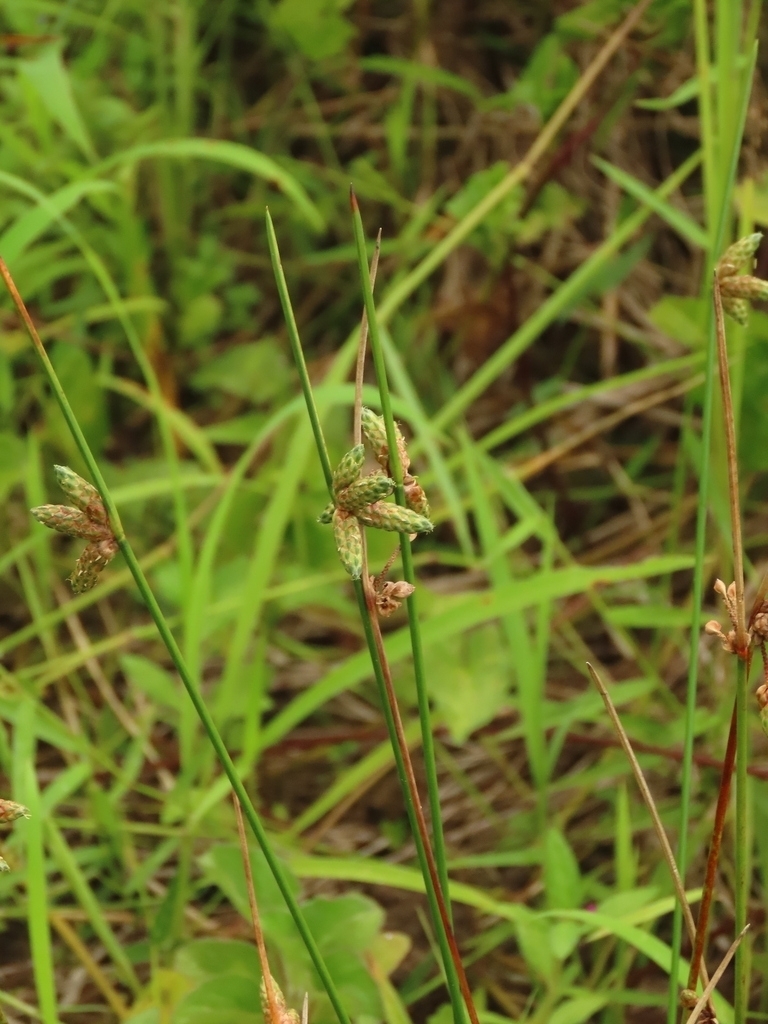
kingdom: Plantae
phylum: Tracheophyta
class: Liliopsida
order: Poales
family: Cyperaceae
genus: Schoenoplectiella
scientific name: Schoenoplectiella juncoides
